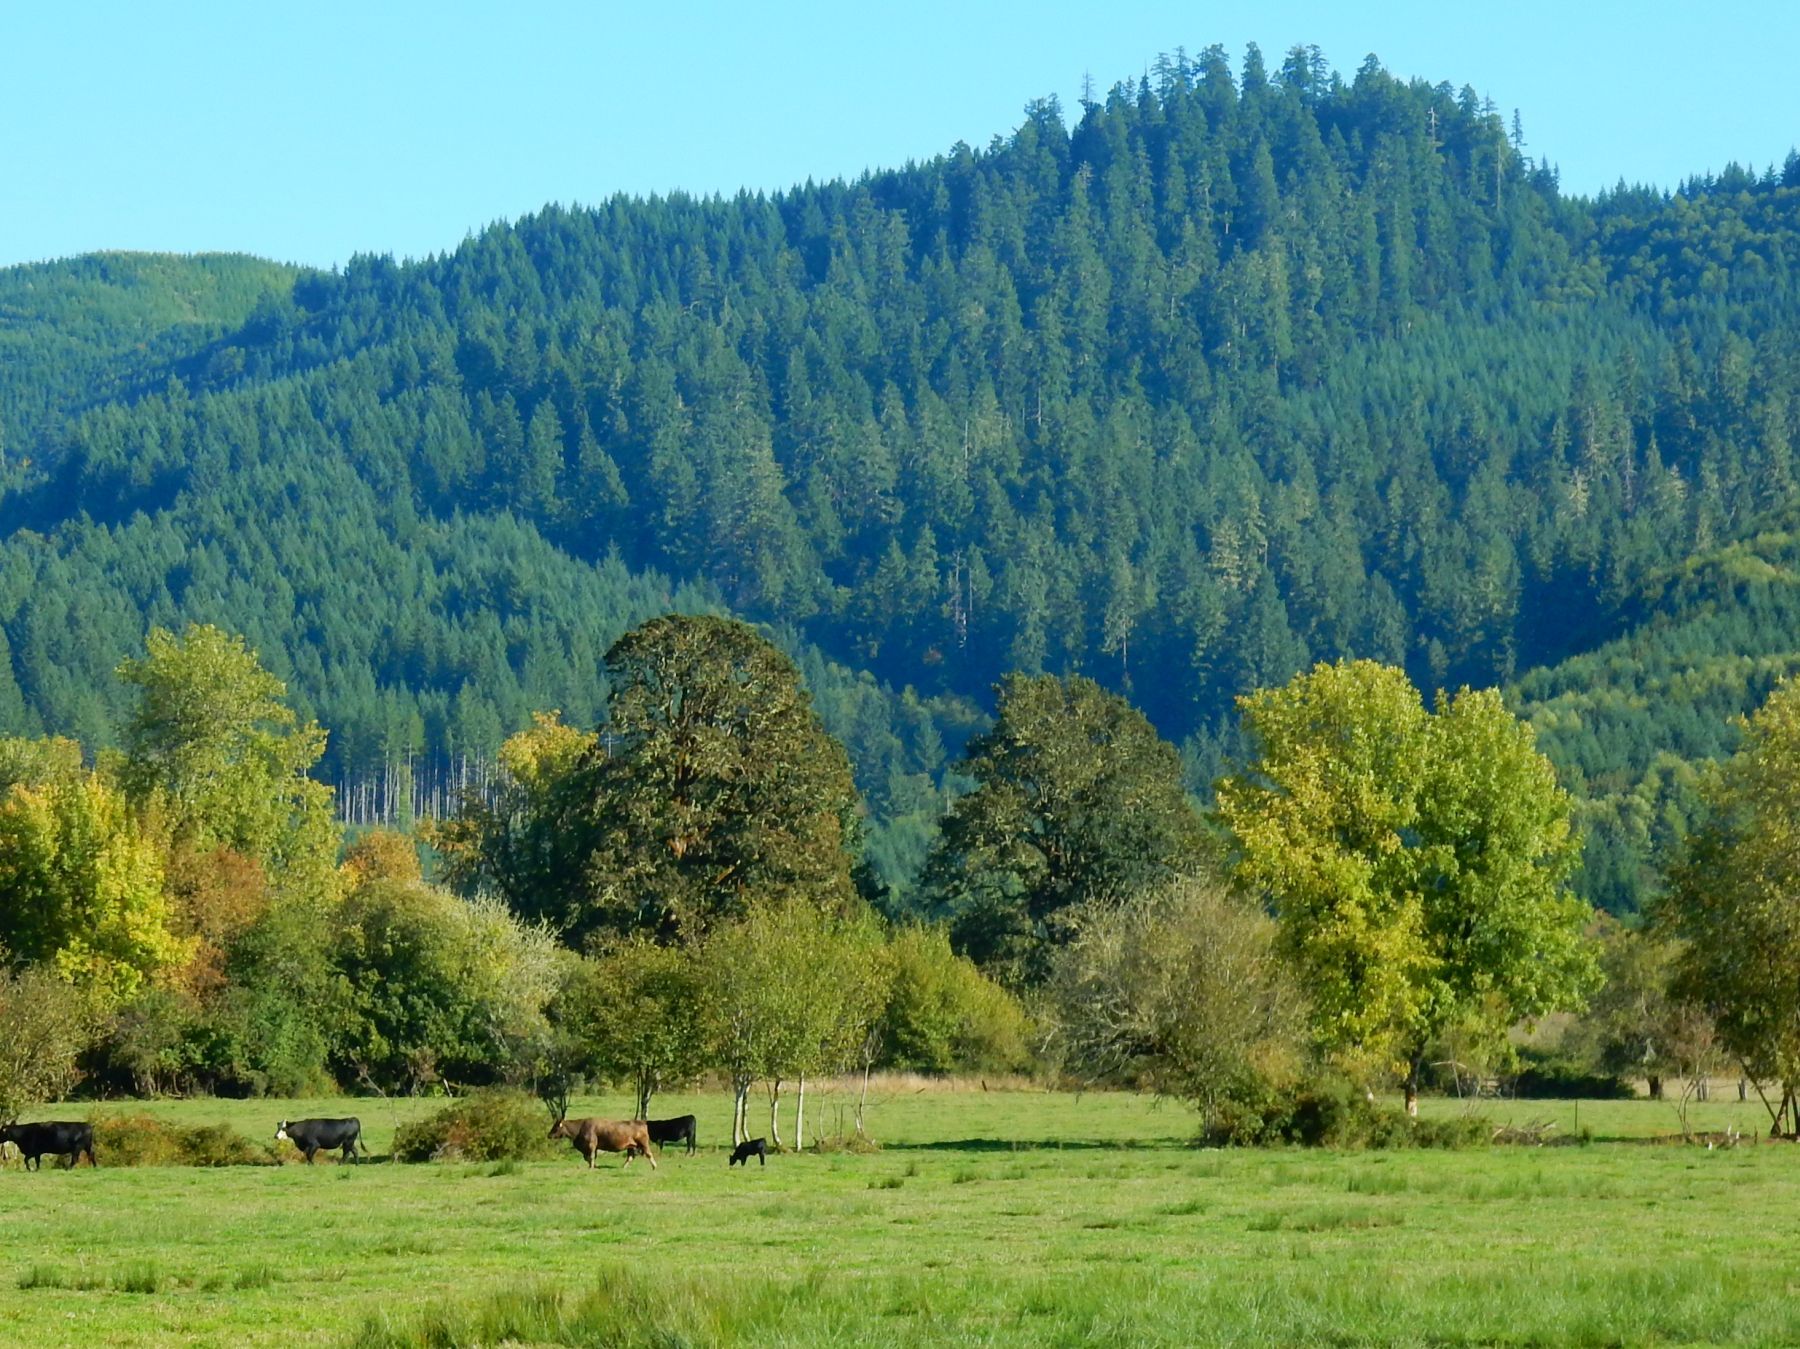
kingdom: Plantae
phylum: Tracheophyta
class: Magnoliopsida
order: Fagales
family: Fagaceae
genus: Quercus
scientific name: Quercus garryana
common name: Garry oak
